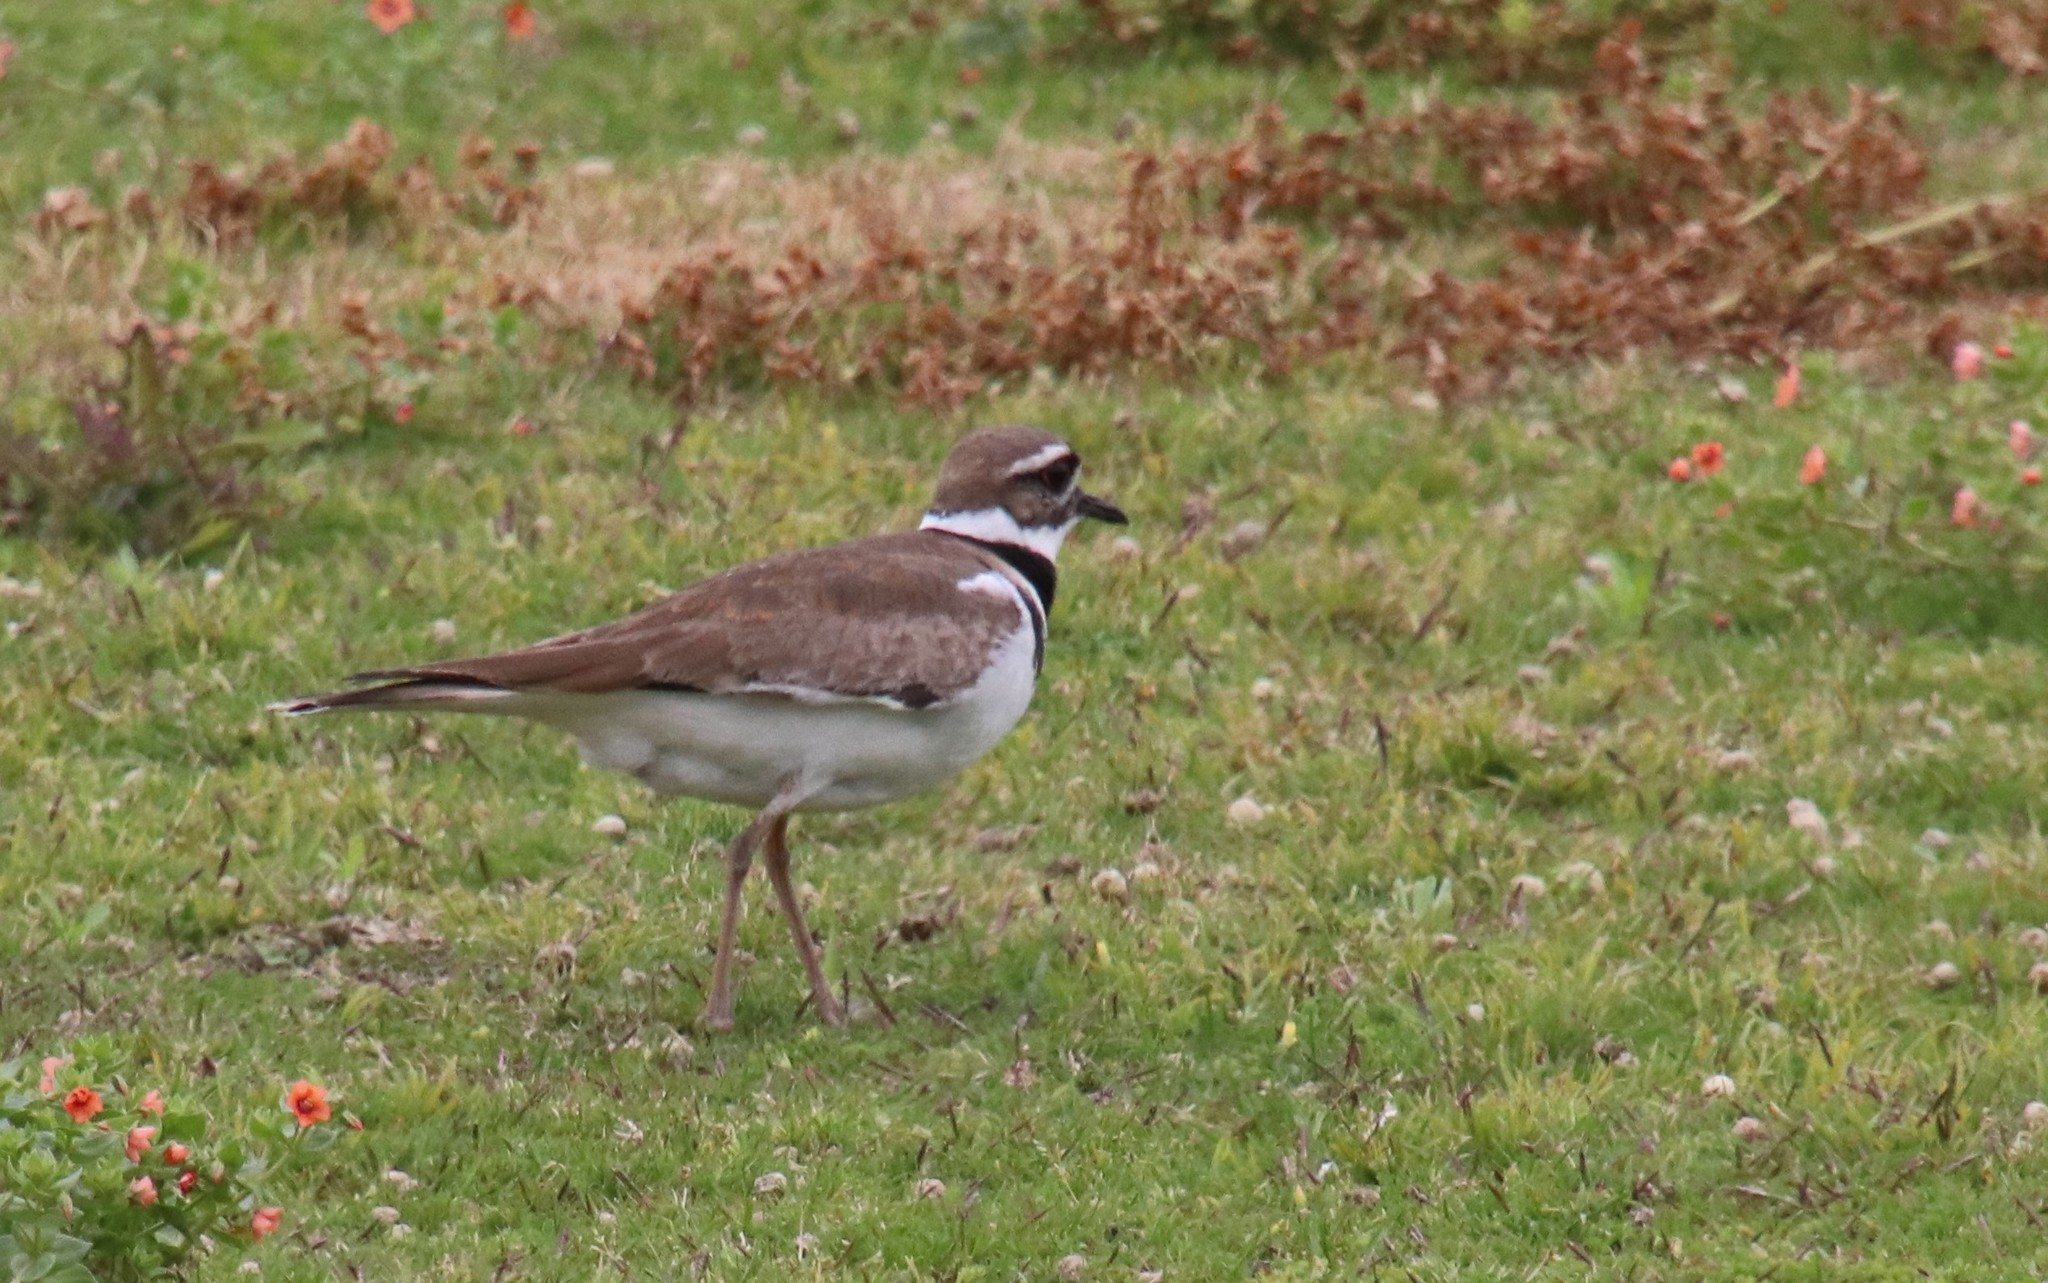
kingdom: Animalia
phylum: Chordata
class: Aves
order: Charadriiformes
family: Charadriidae
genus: Charadrius
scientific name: Charadrius vociferus
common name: Killdeer
